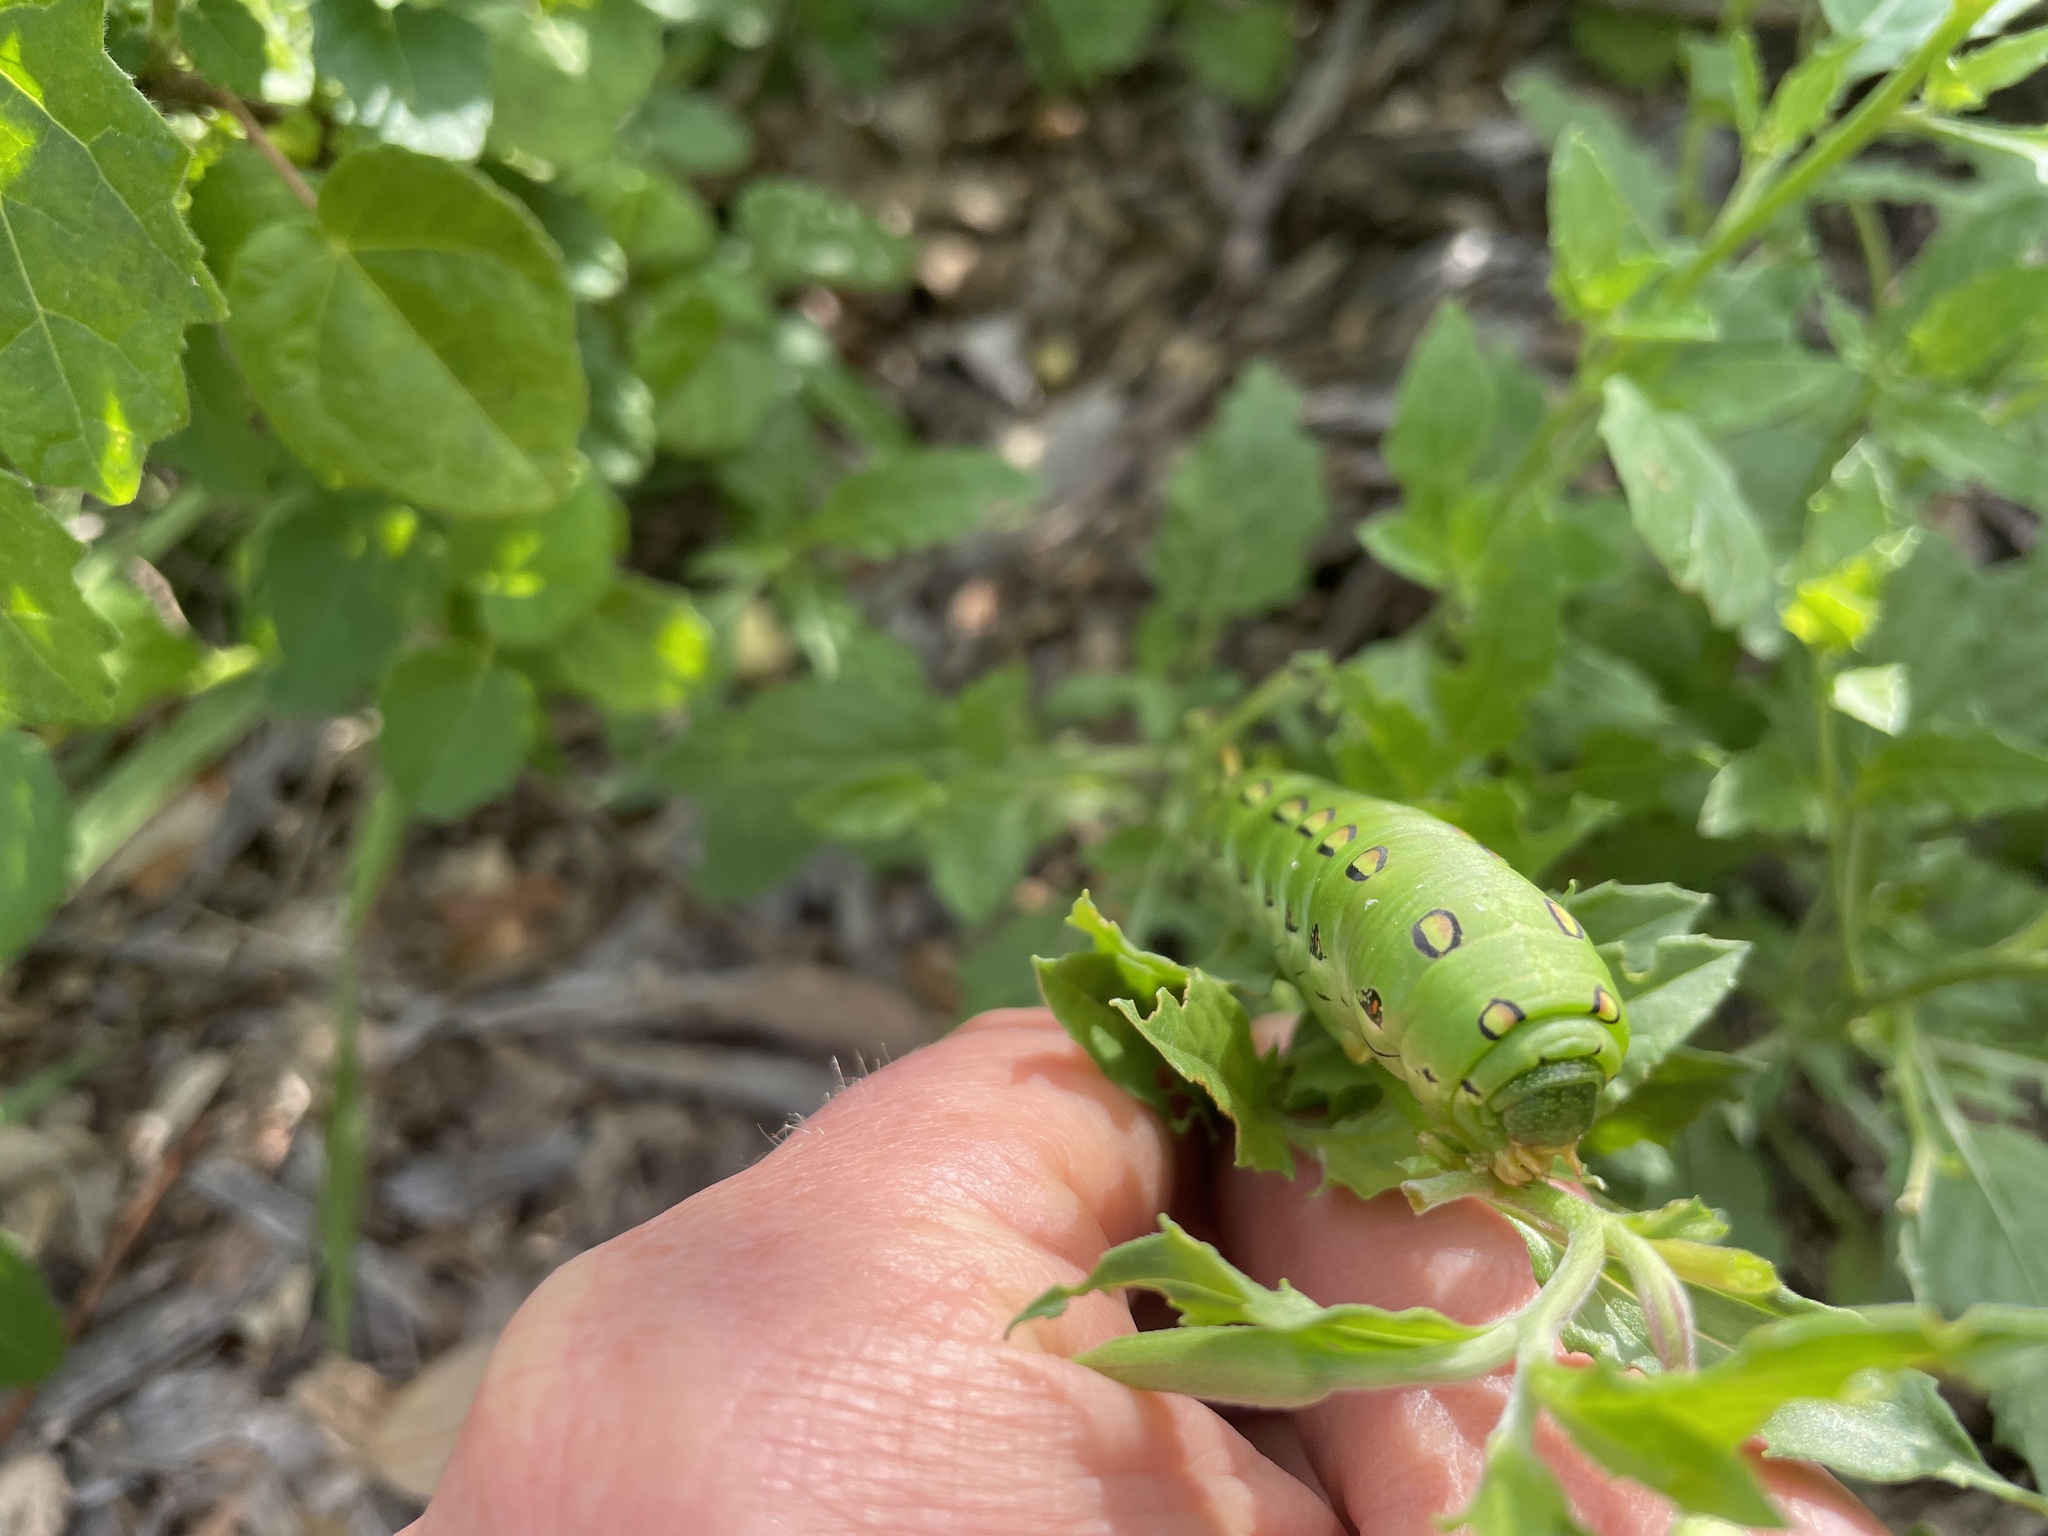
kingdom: Animalia
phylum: Arthropoda
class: Insecta
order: Lepidoptera
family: Sphingidae
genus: Hyles
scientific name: Hyles lineata
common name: White-lined sphinx
